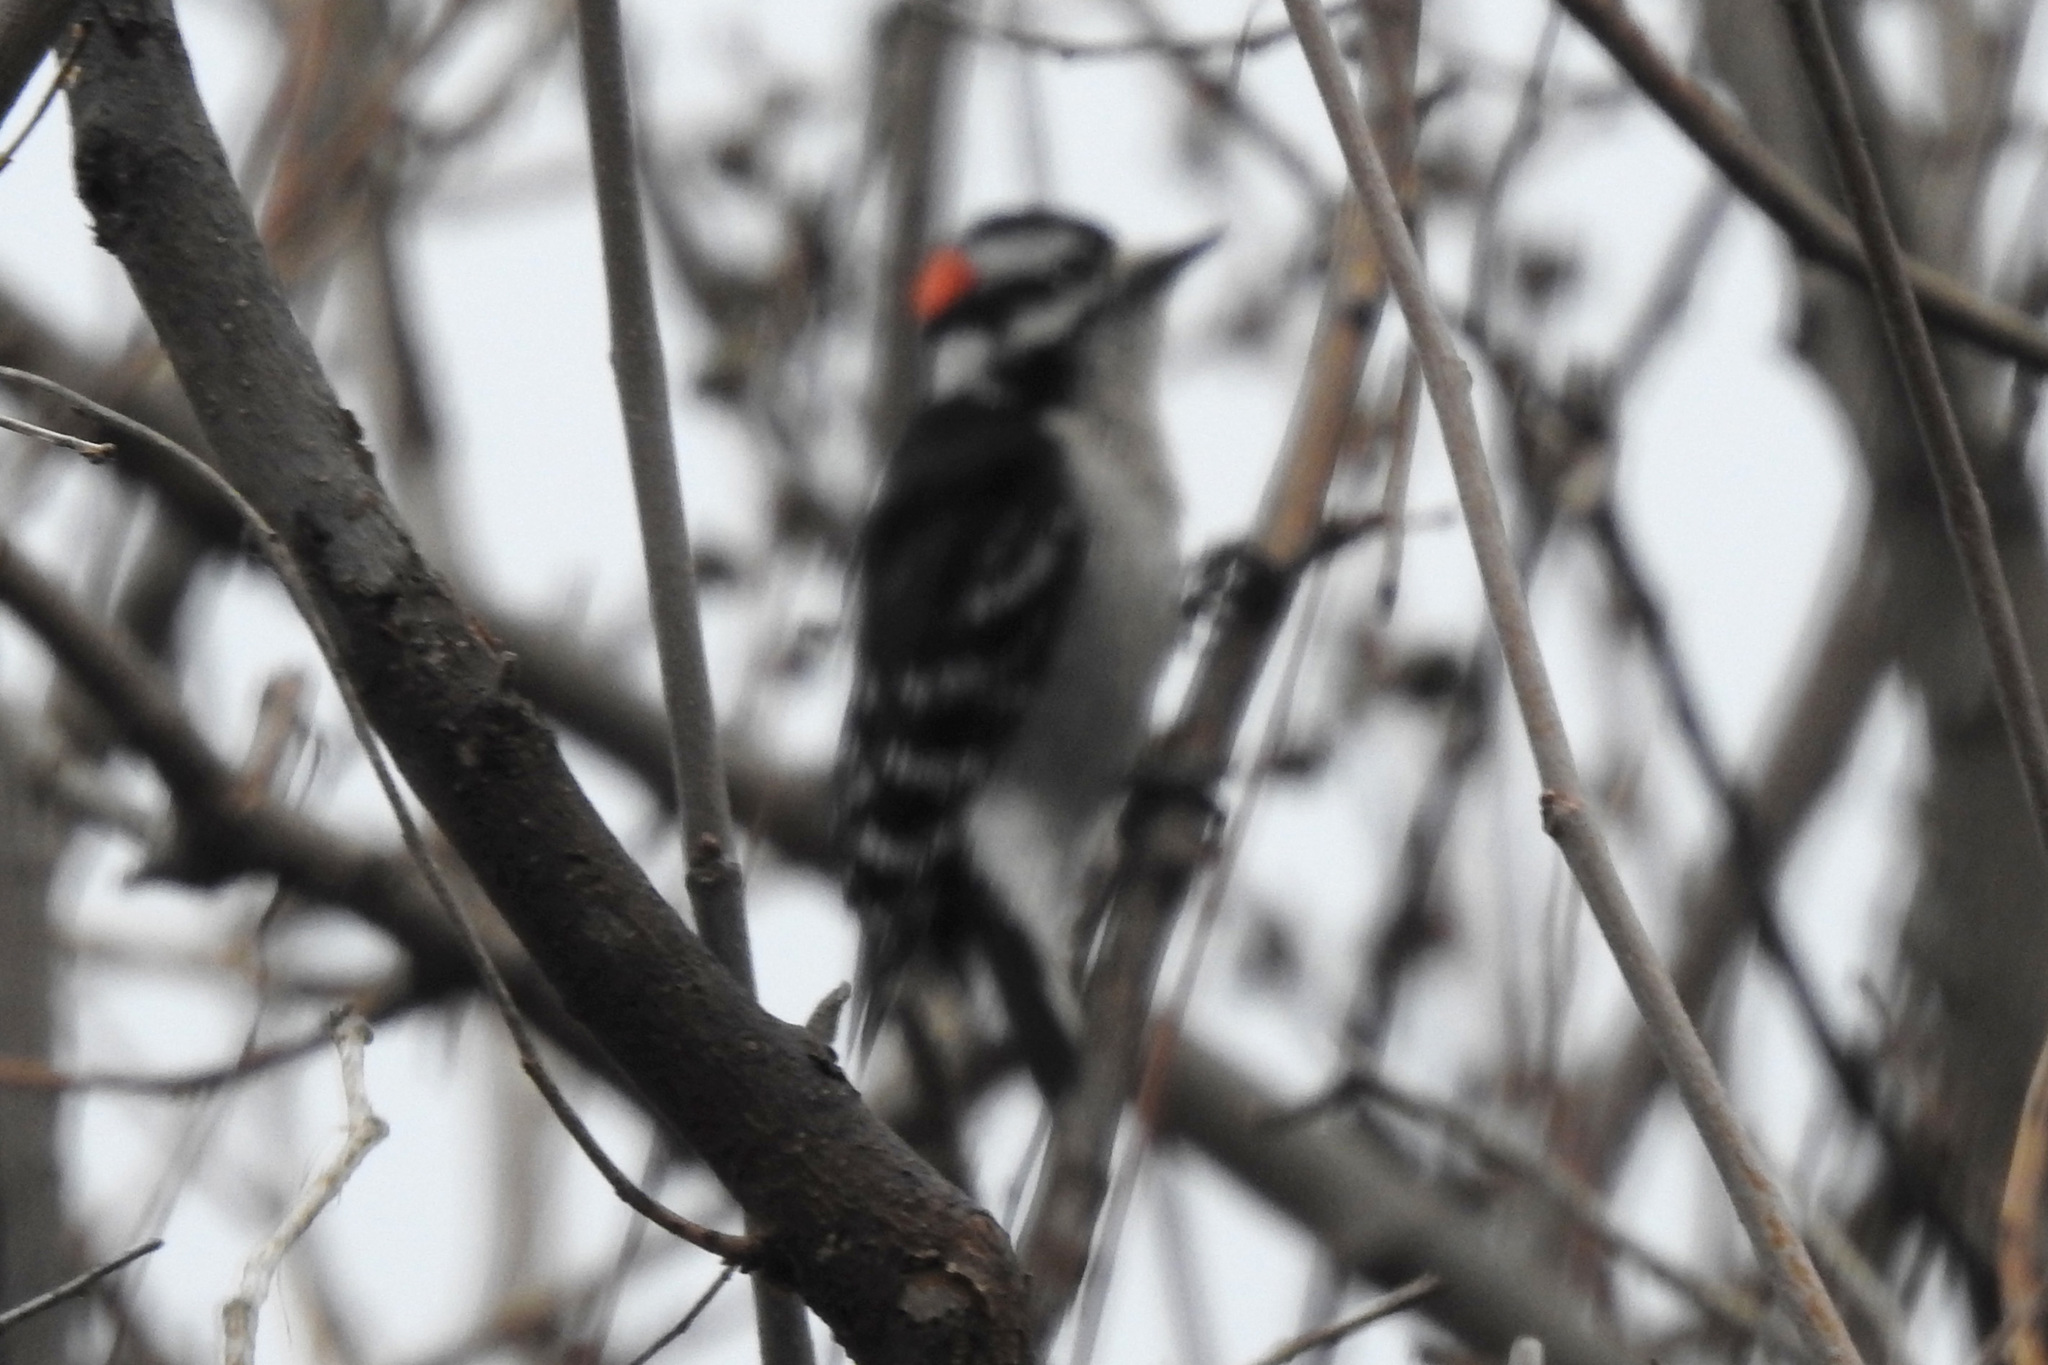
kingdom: Animalia
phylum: Chordata
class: Aves
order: Piciformes
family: Picidae
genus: Dryobates
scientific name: Dryobates pubescens
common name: Downy woodpecker
